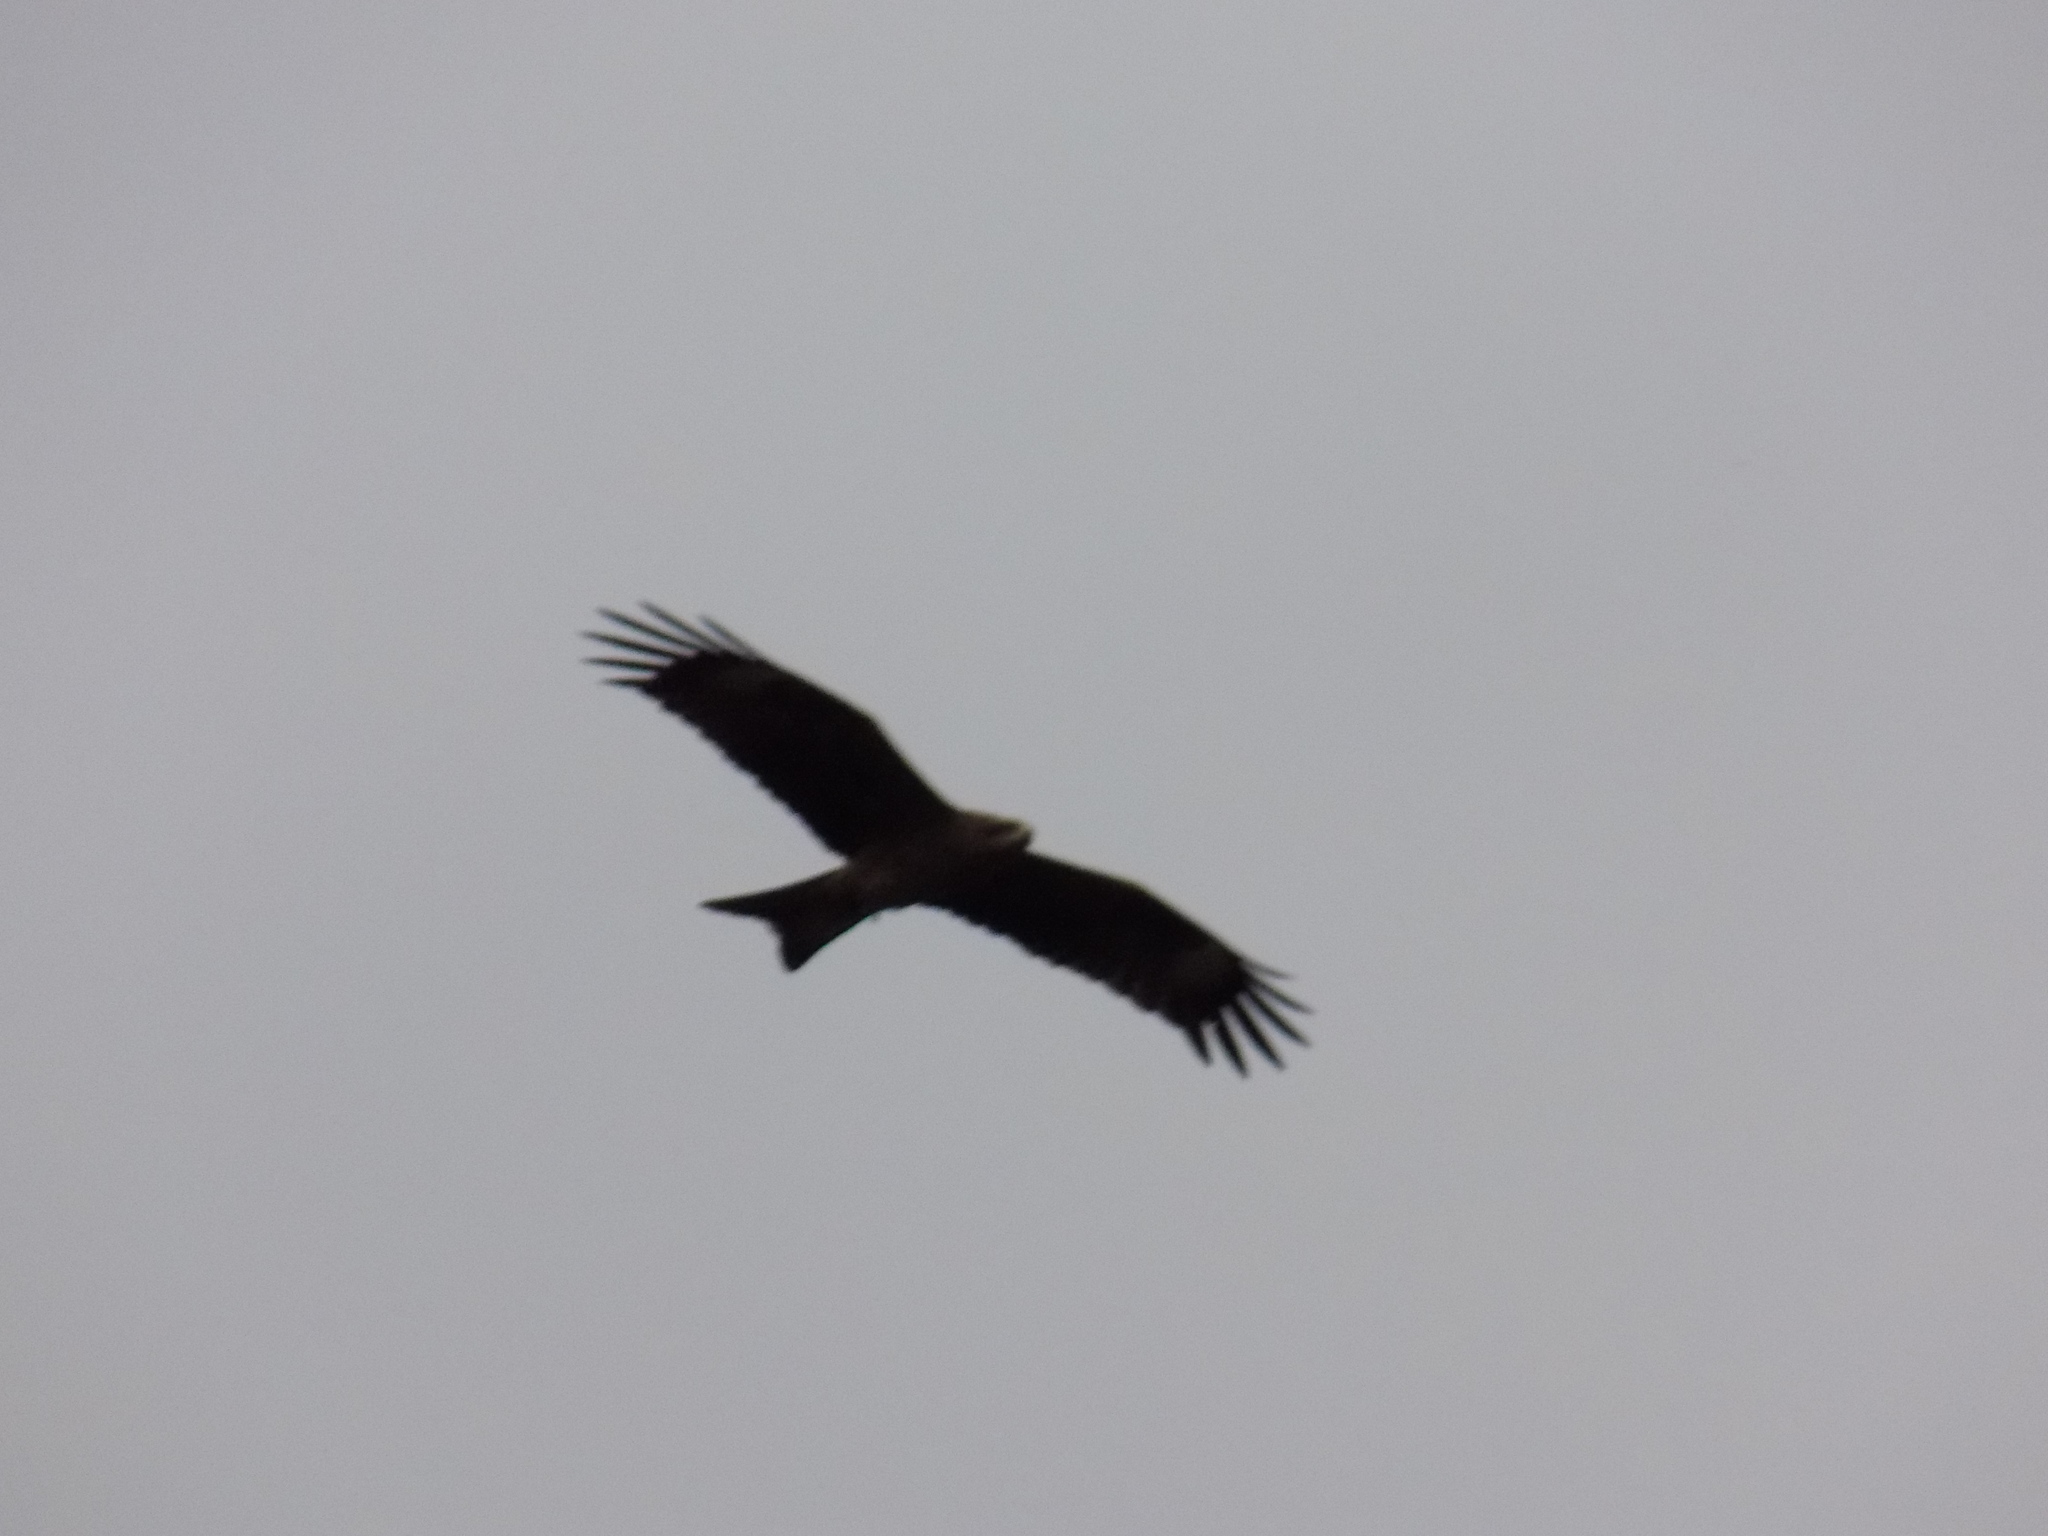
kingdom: Animalia
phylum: Chordata
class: Aves
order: Accipitriformes
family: Accipitridae
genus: Milvus
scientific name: Milvus migrans
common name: Black kite
